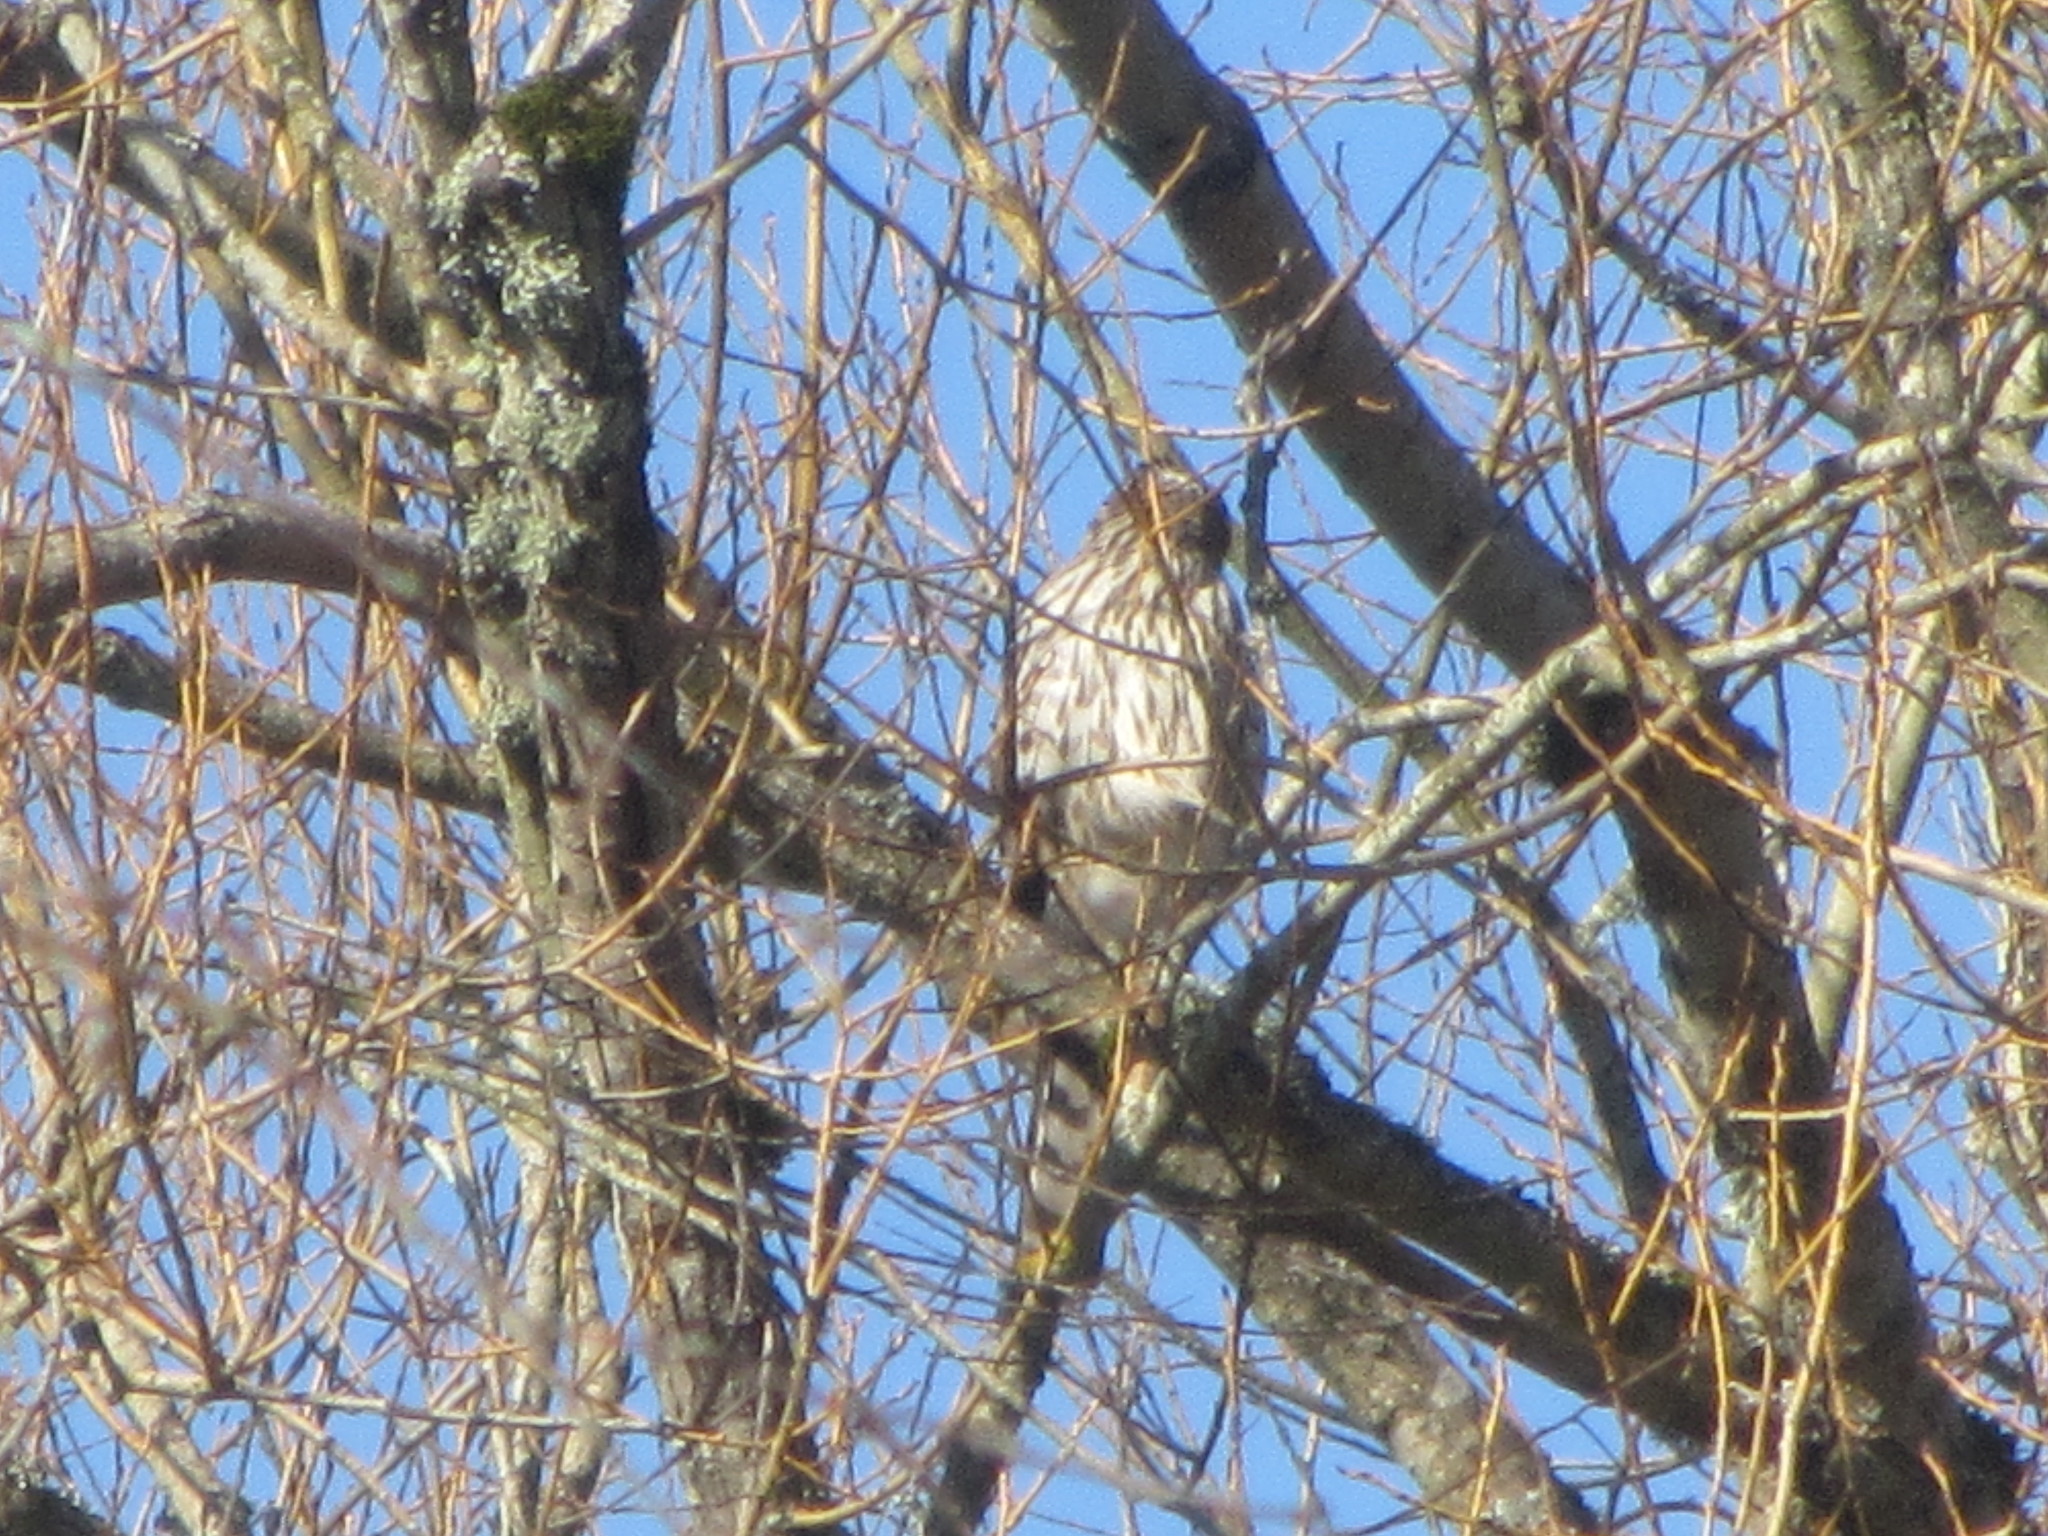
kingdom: Animalia
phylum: Chordata
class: Aves
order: Accipitriformes
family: Accipitridae
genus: Accipiter
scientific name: Accipiter cooperii
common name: Cooper's hawk
